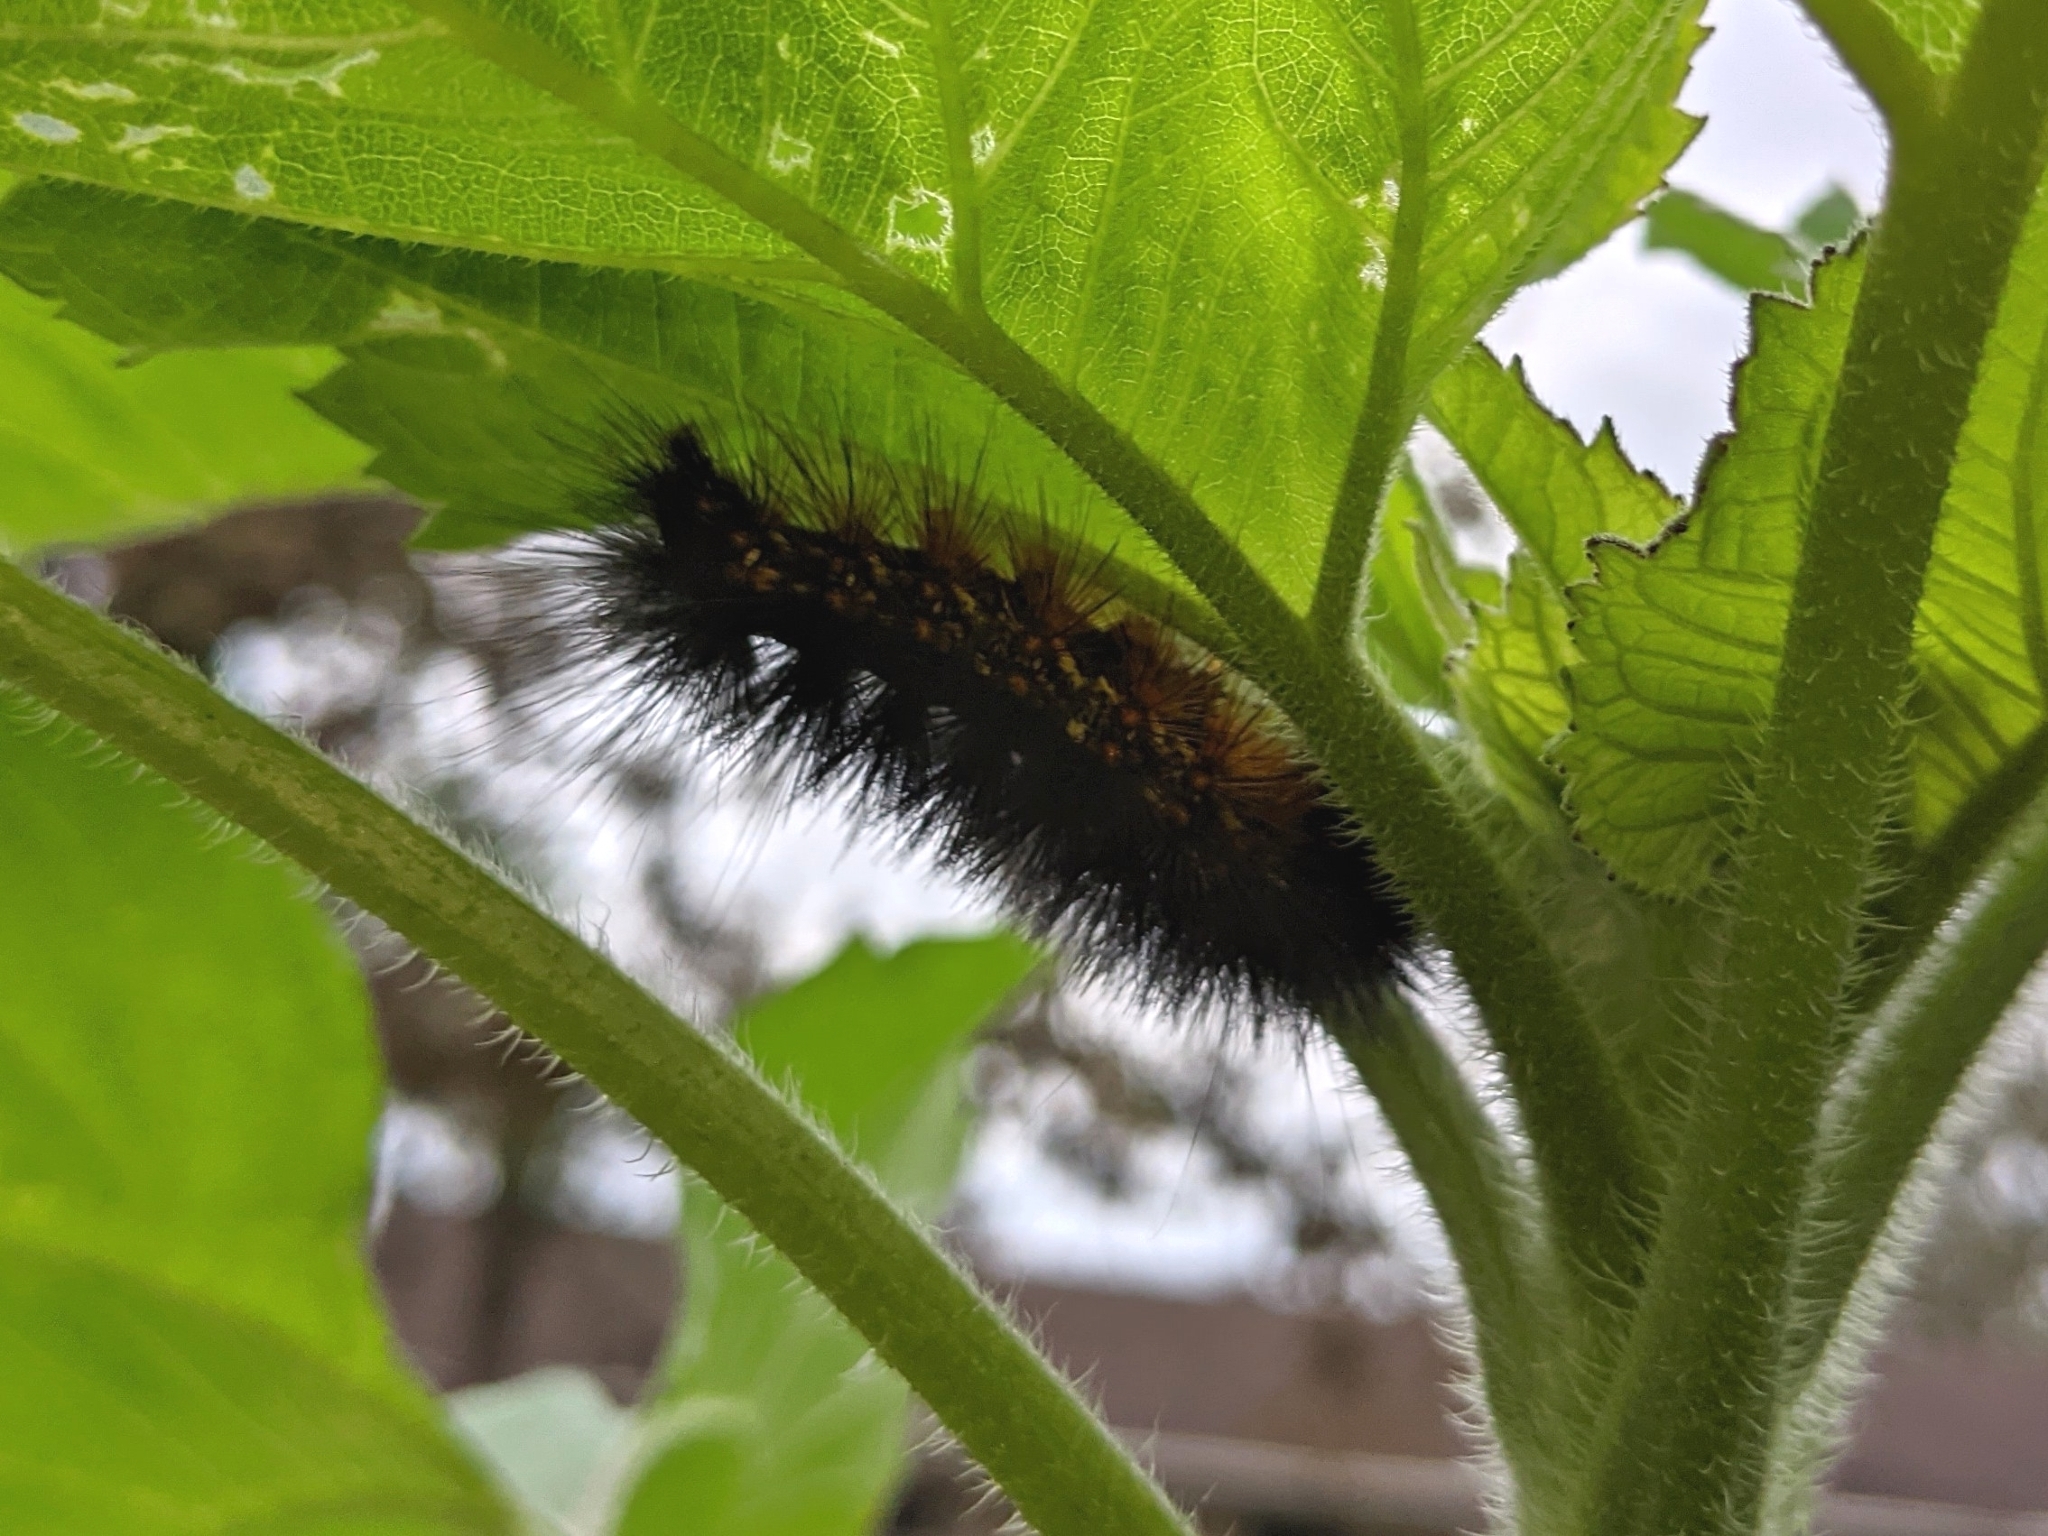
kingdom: Animalia
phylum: Arthropoda
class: Insecta
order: Lepidoptera
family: Erebidae
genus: Estigmene
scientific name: Estigmene acrea
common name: Salt marsh moth
